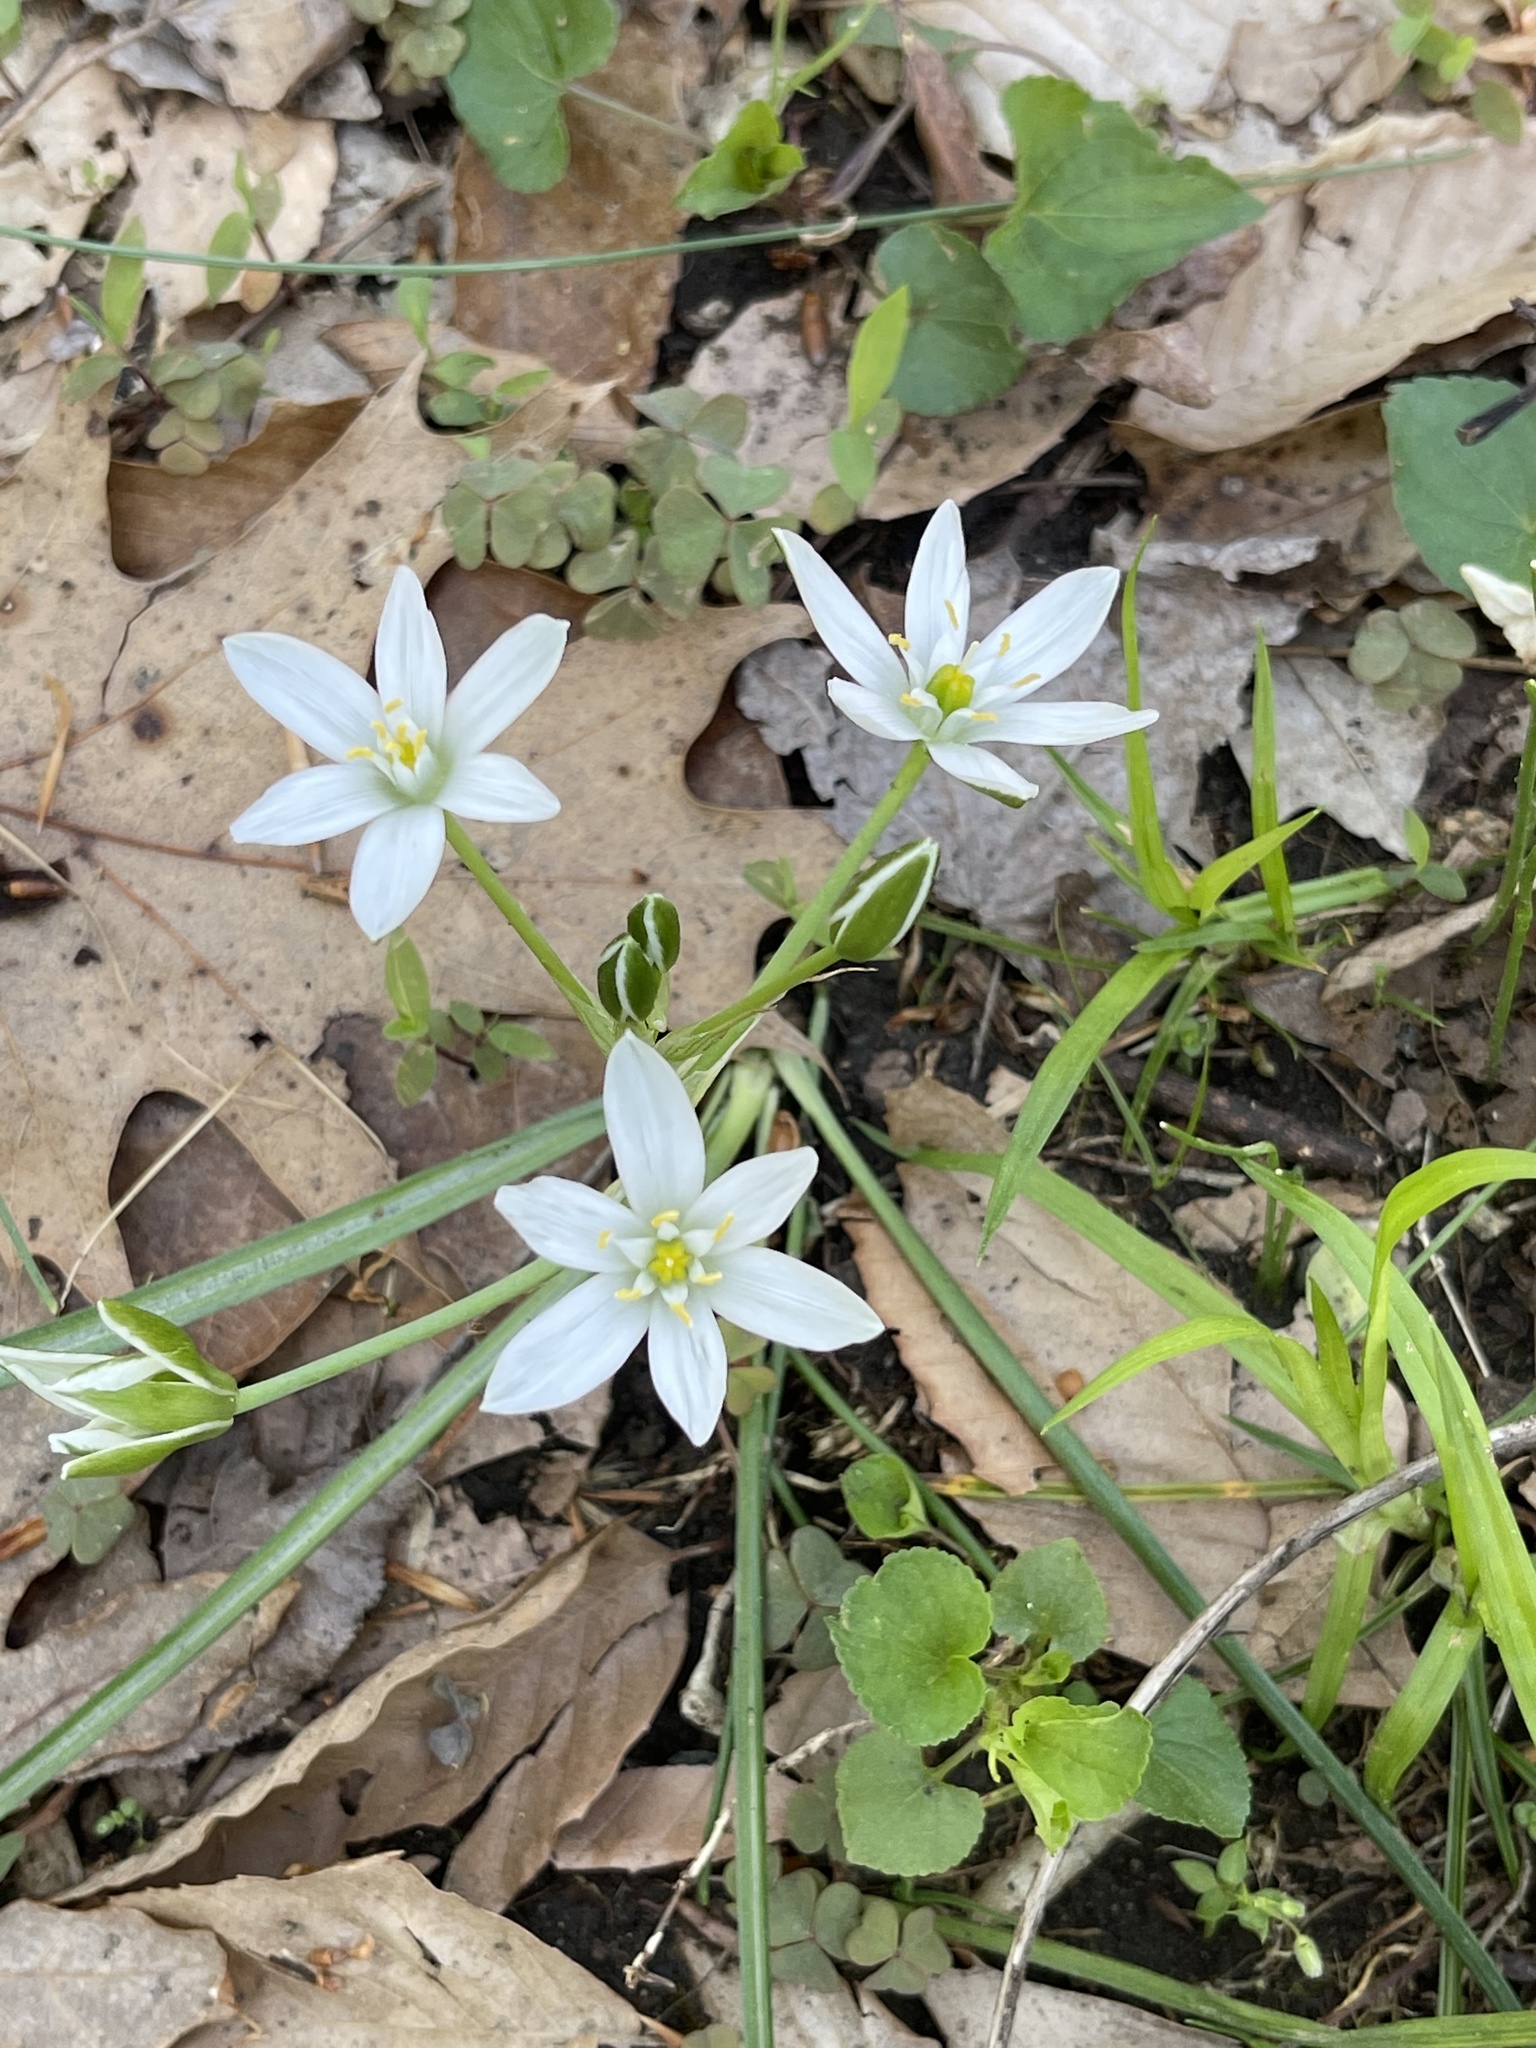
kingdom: Plantae
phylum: Tracheophyta
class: Liliopsida
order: Asparagales
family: Asparagaceae
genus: Ornithogalum
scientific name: Ornithogalum umbellatum
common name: Garden star-of-bethlehem
